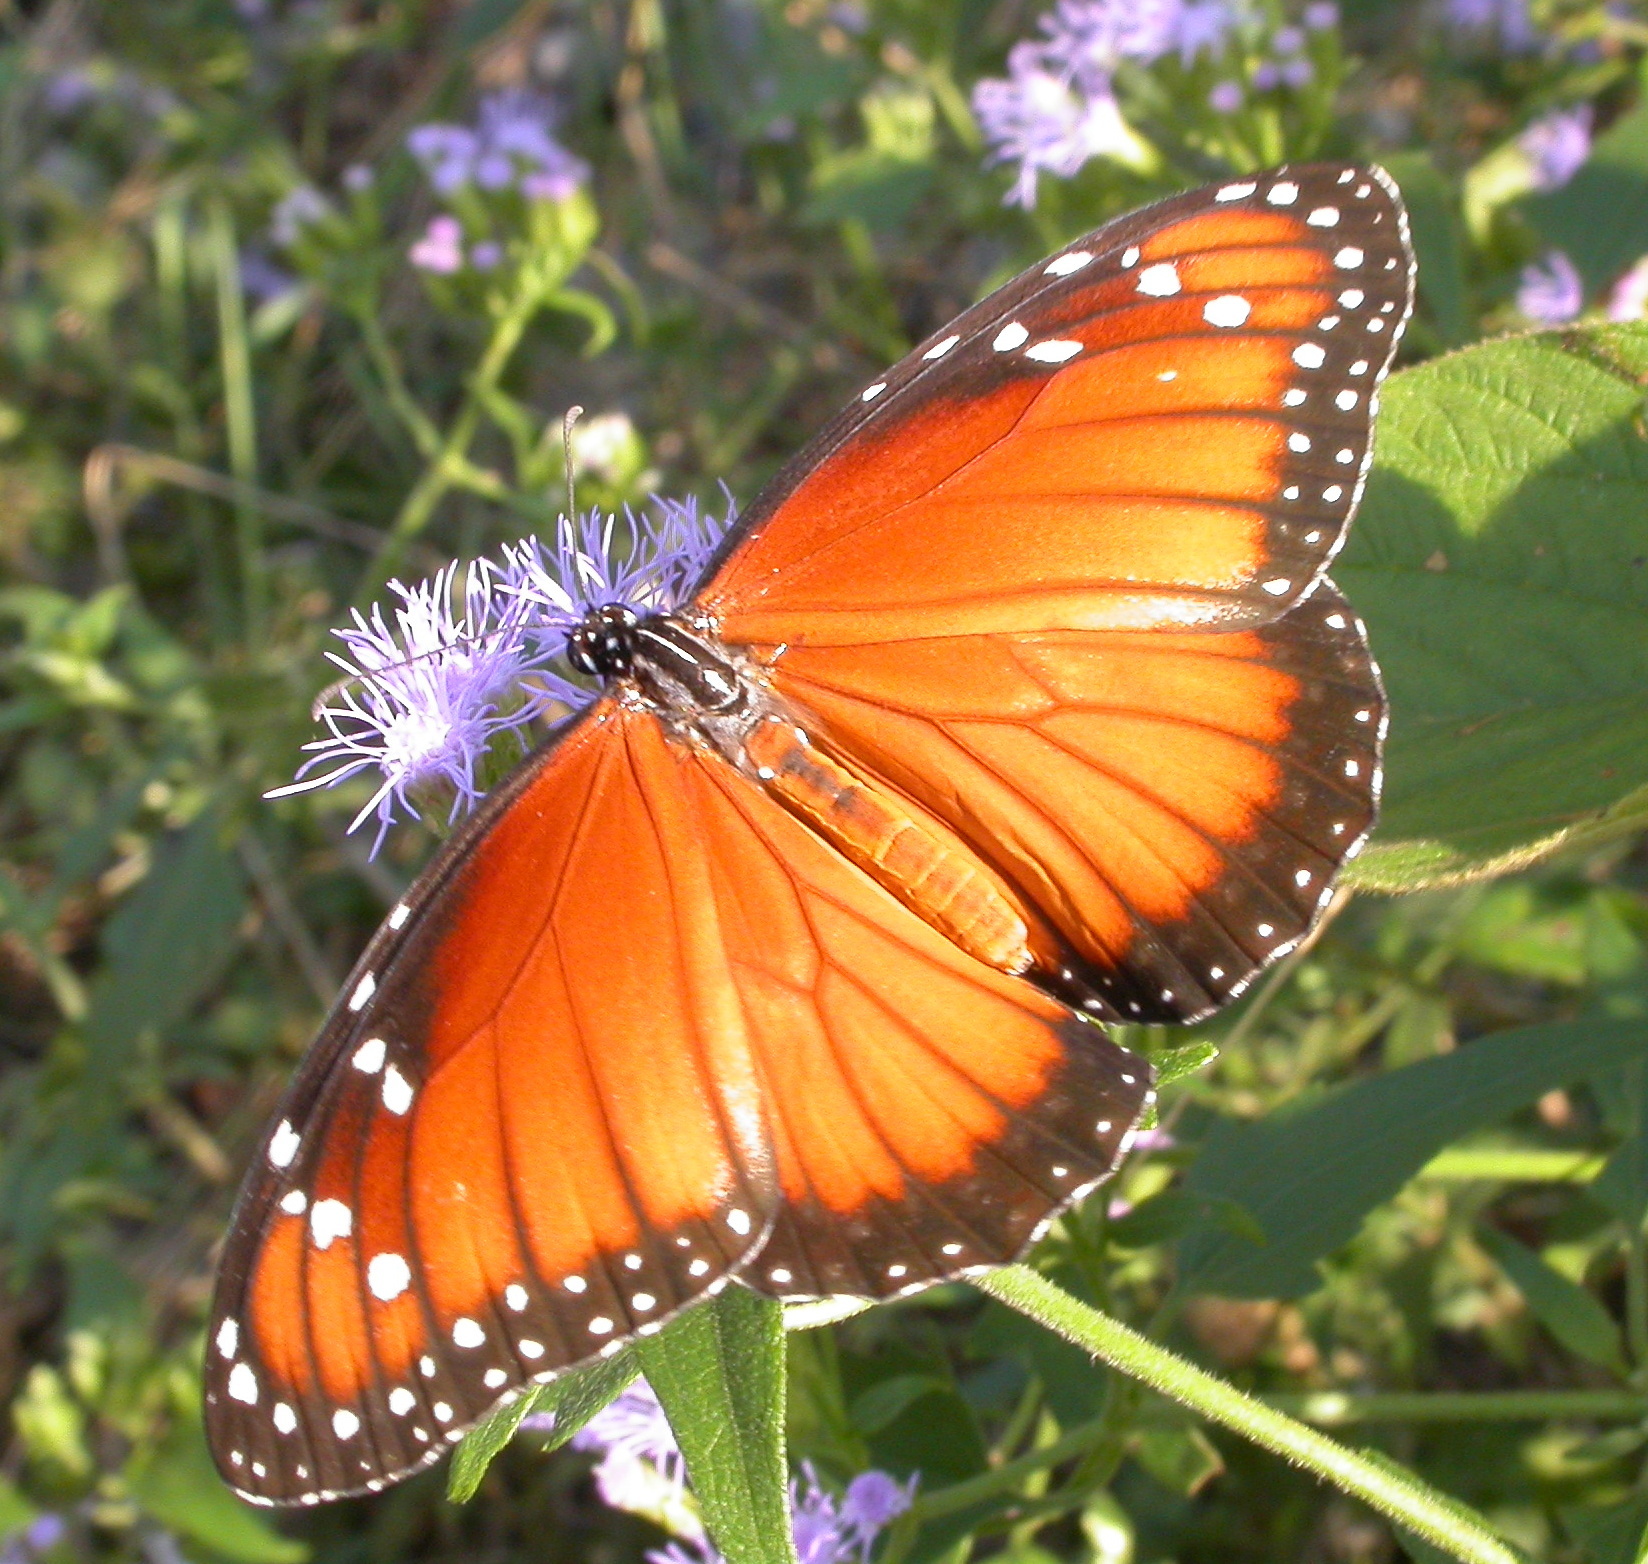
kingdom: Animalia
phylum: Arthropoda
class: Insecta
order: Lepidoptera
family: Nymphalidae
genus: Danaus
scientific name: Danaus eresimus
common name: Soldier
